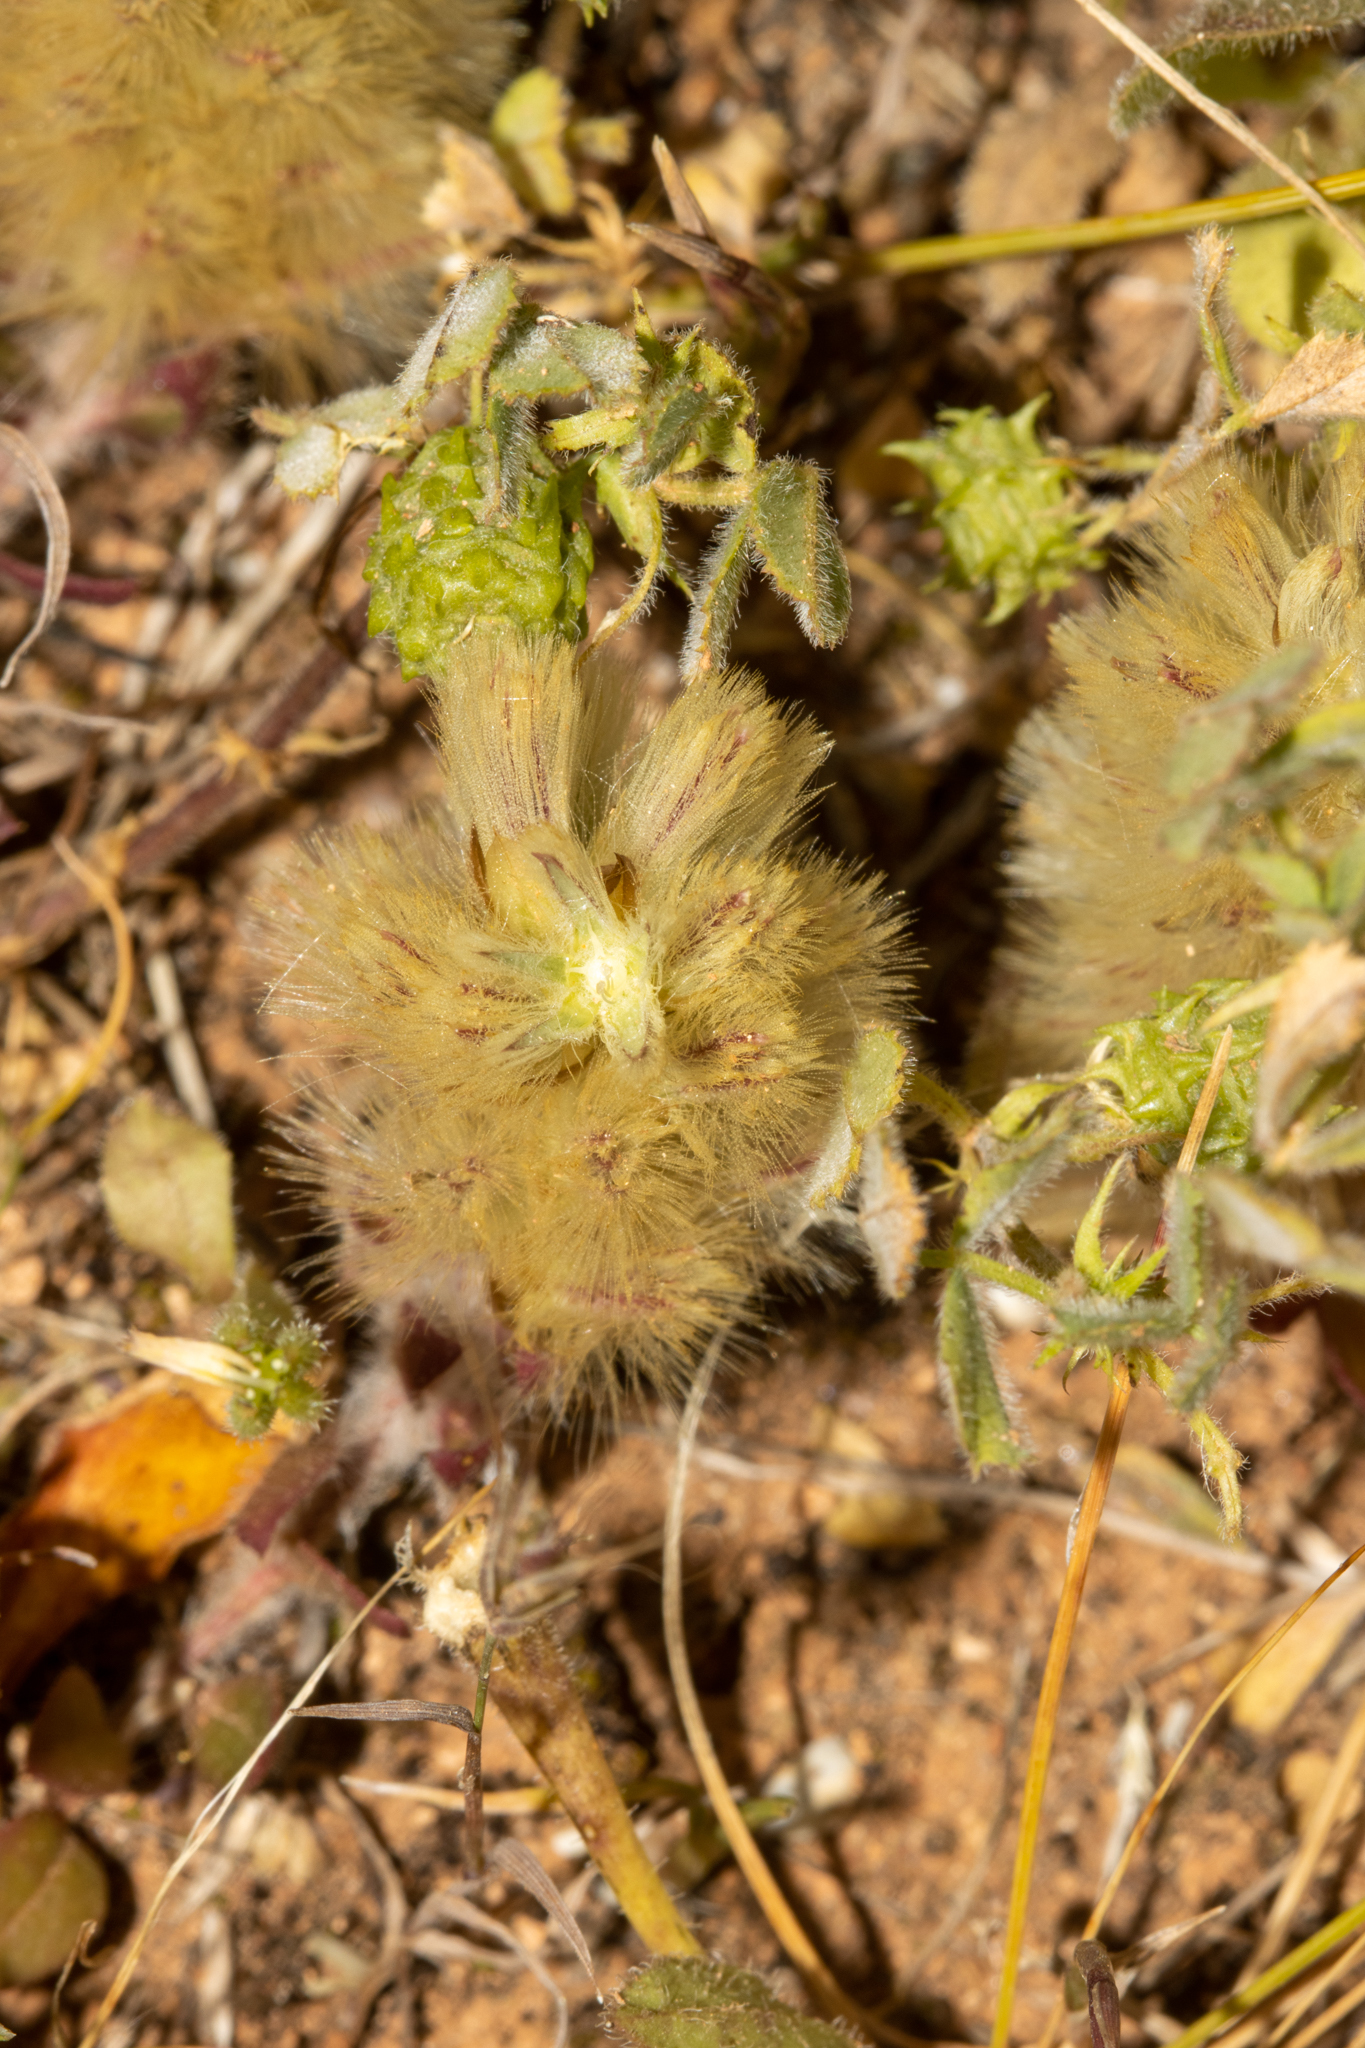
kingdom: Plantae
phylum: Tracheophyta
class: Magnoliopsida
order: Caryophyllales
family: Amaranthaceae
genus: Ptilotus
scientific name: Ptilotus spathulatus
